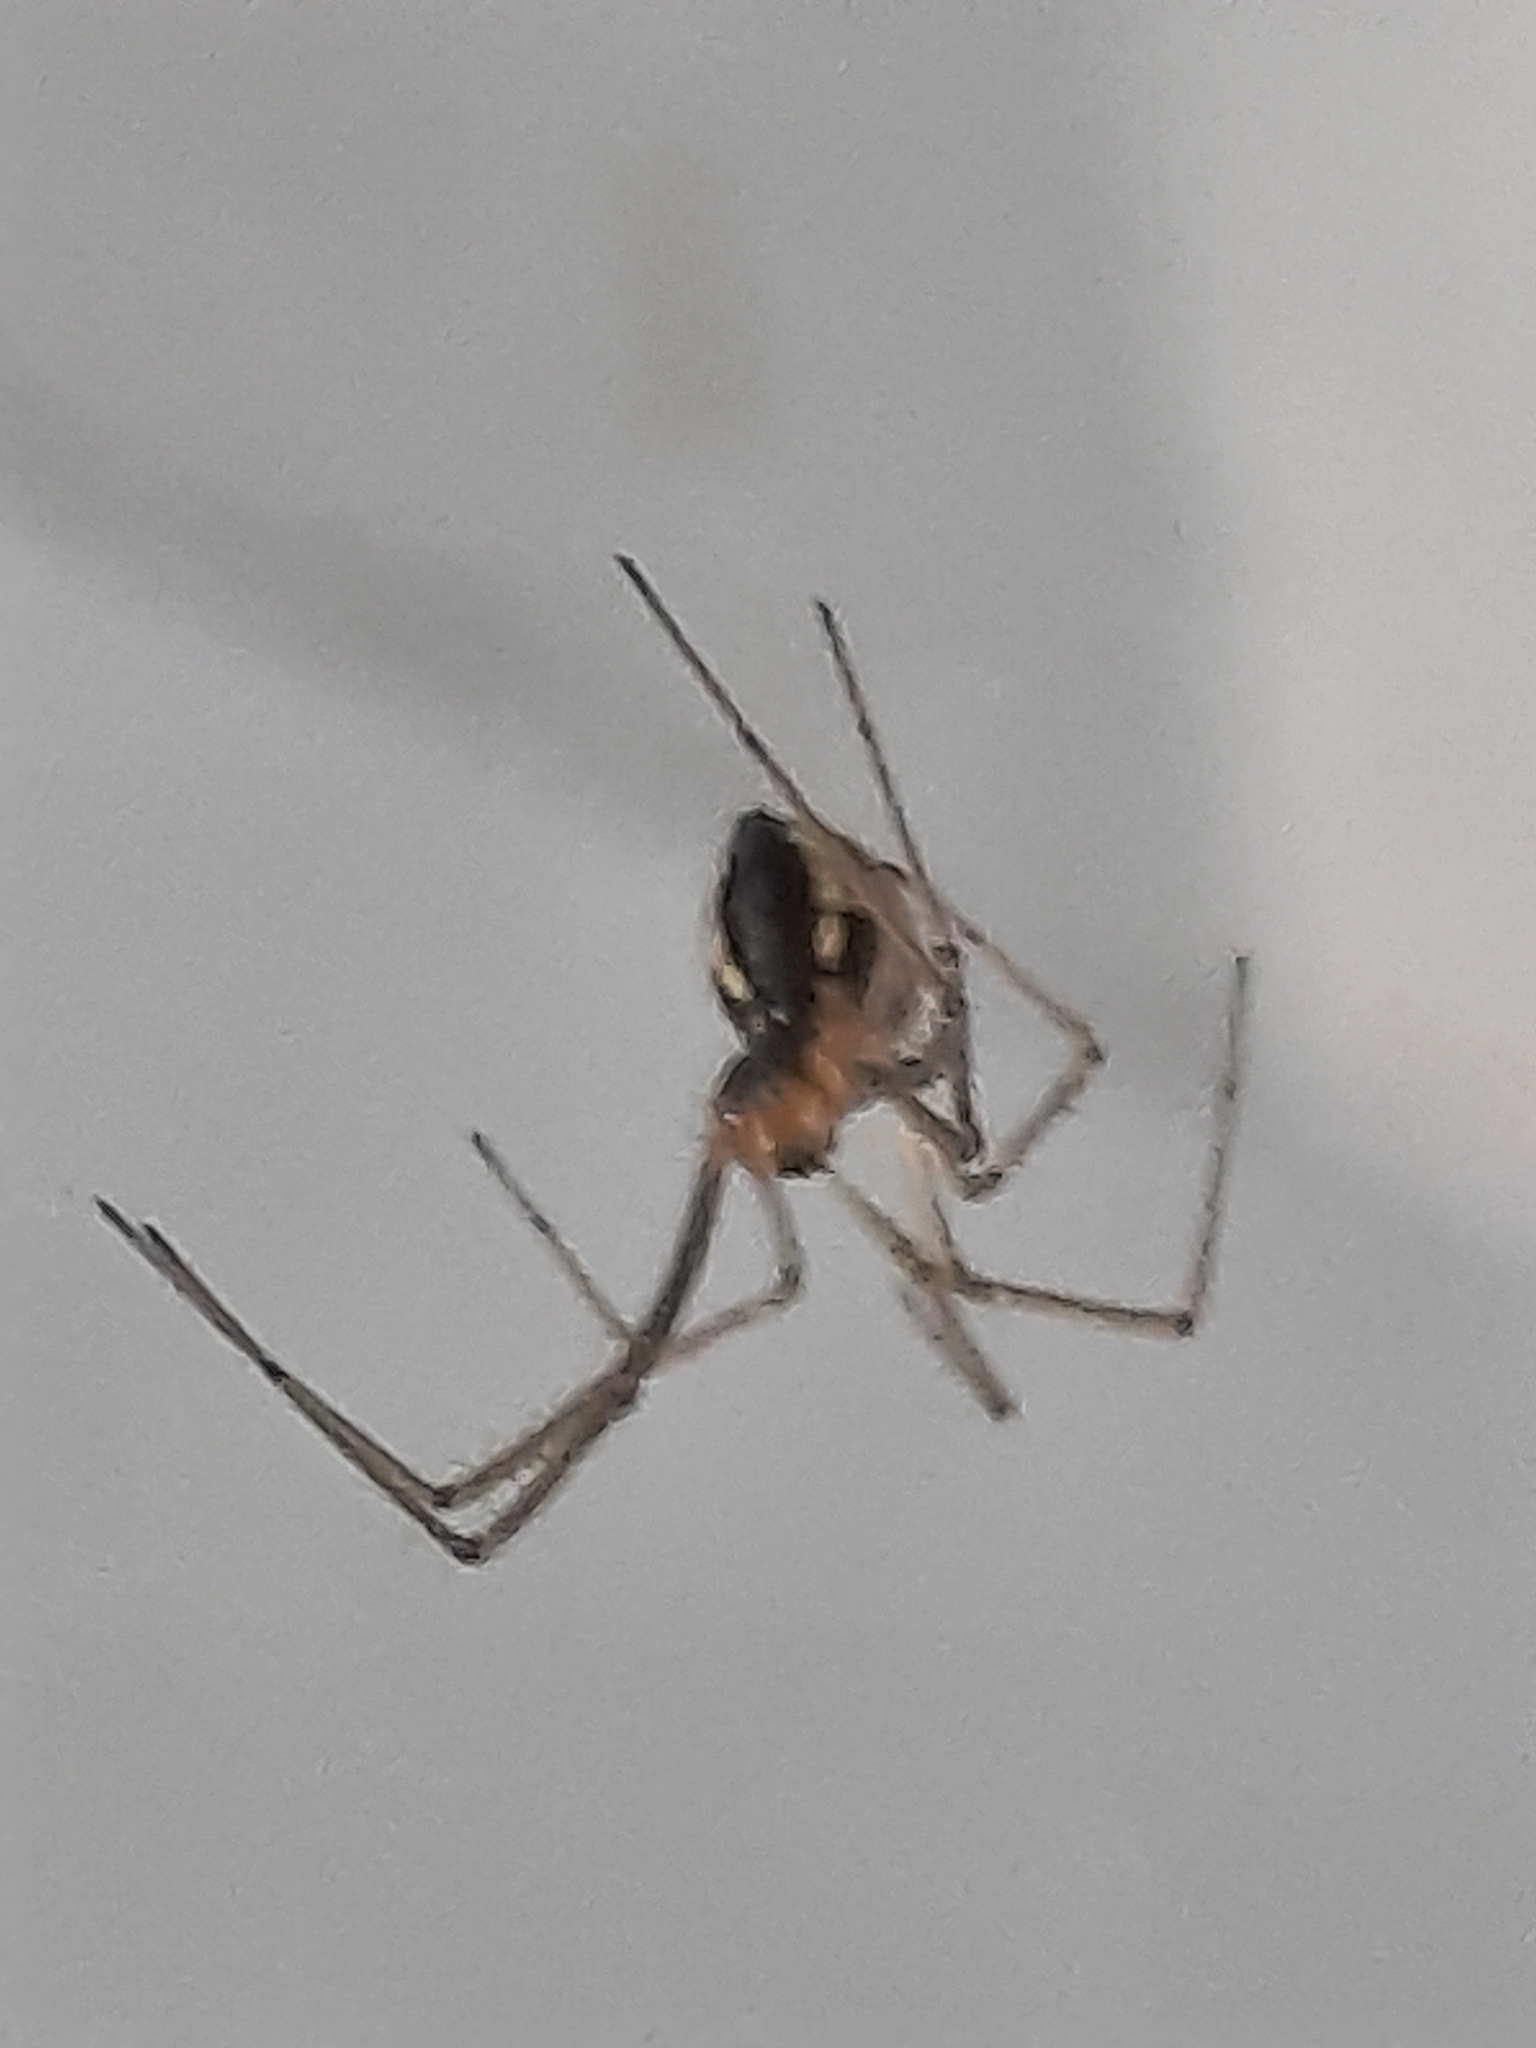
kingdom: Animalia
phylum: Arthropoda
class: Arachnida
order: Araneae
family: Linyphiidae
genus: Neriene
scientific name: Neriene radiata
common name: Filmy dome spider
